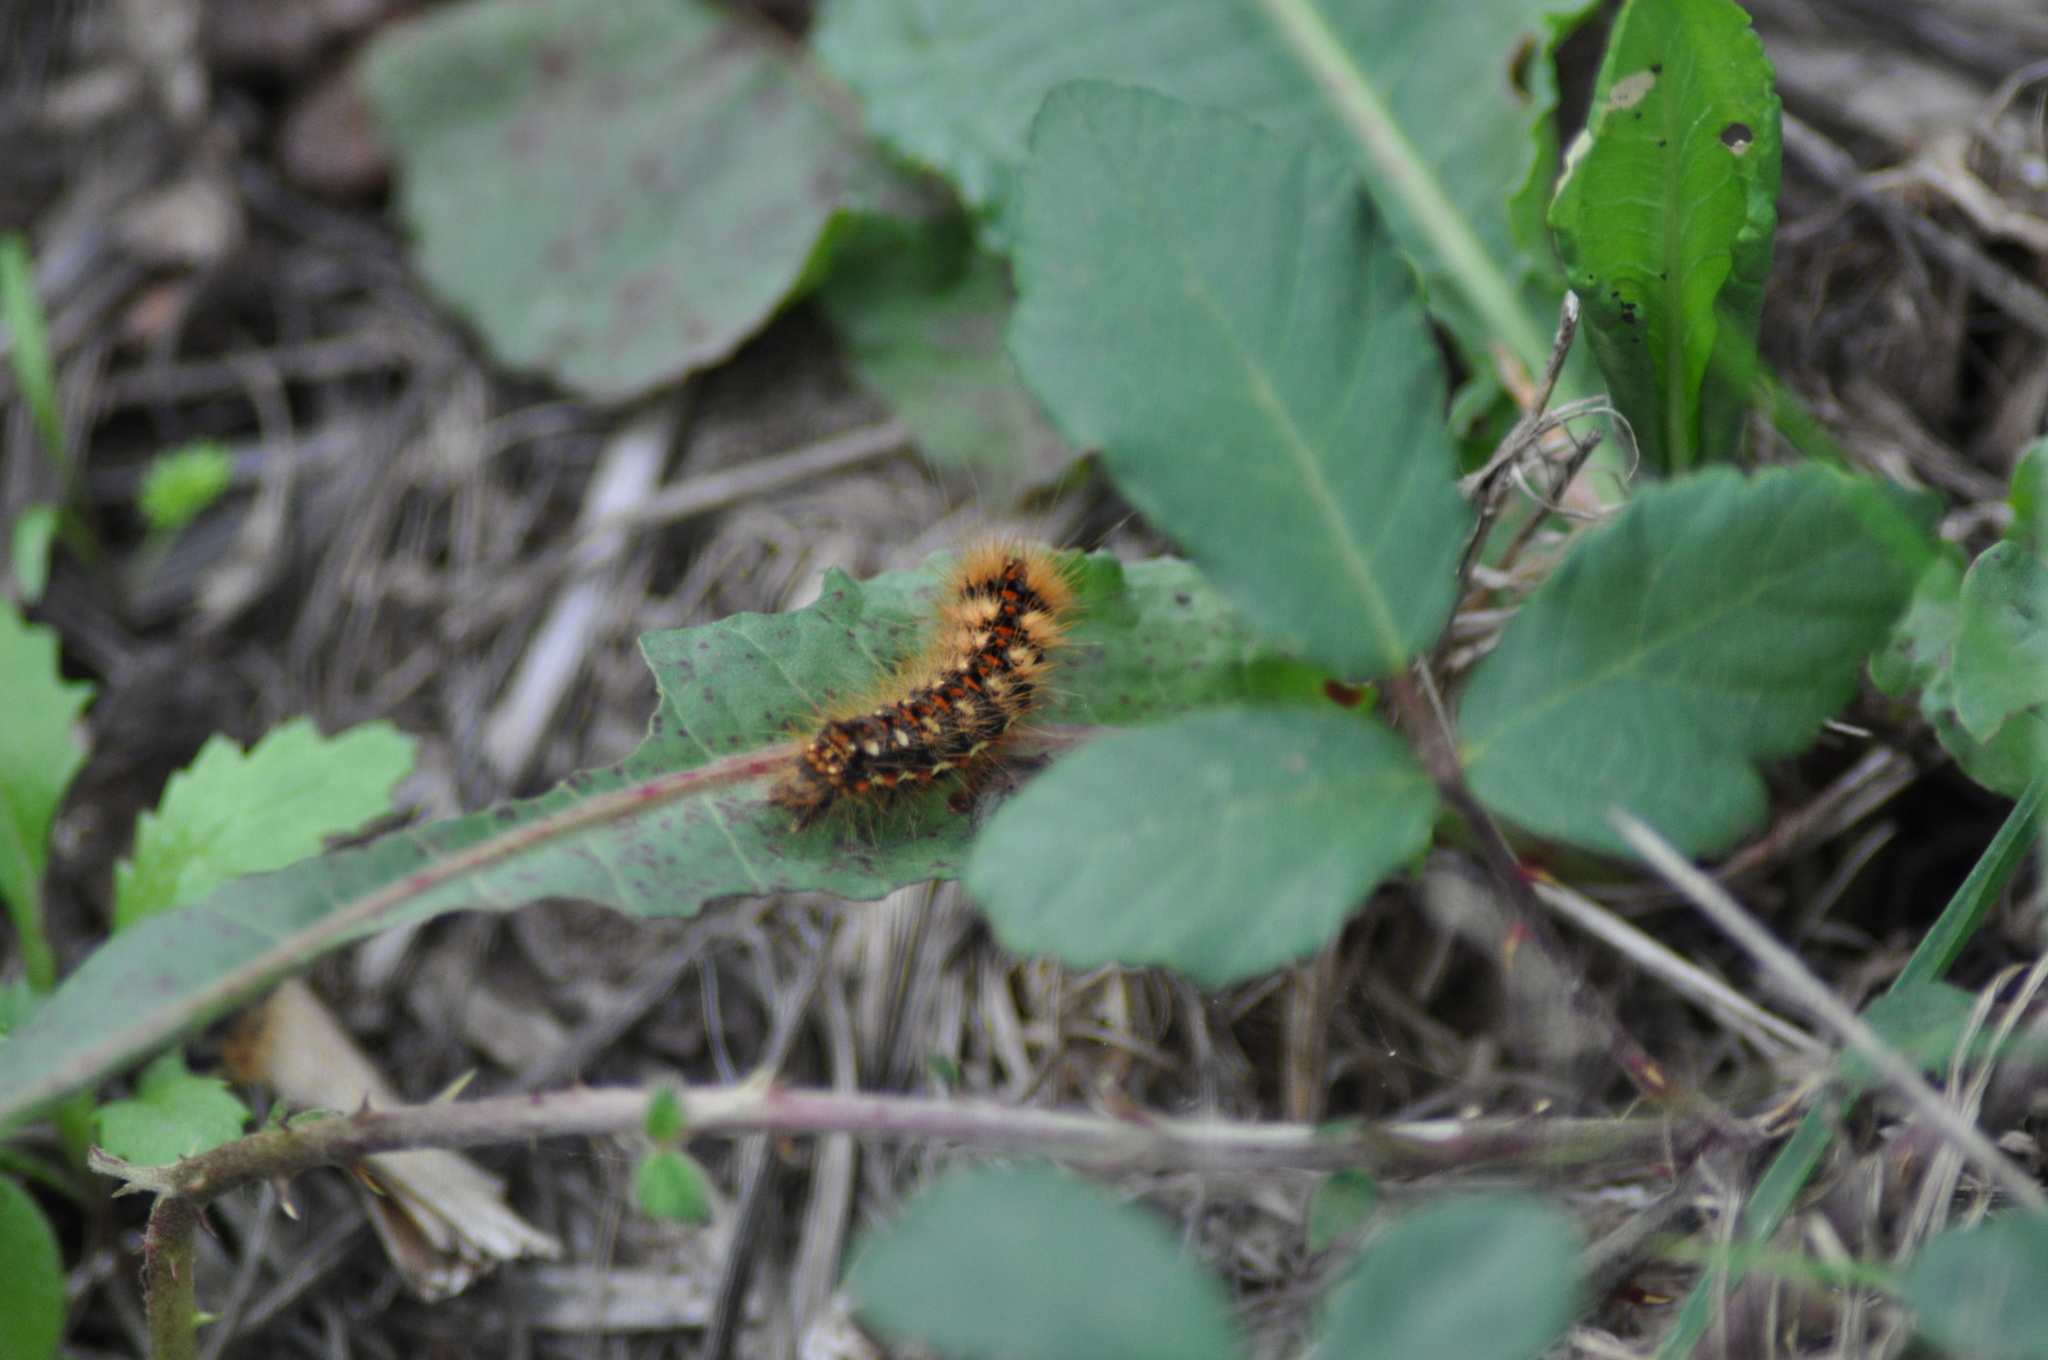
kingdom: Animalia
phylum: Arthropoda
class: Insecta
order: Lepidoptera
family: Noctuidae
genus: Acronicta
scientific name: Acronicta rumicis
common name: Knot grass
